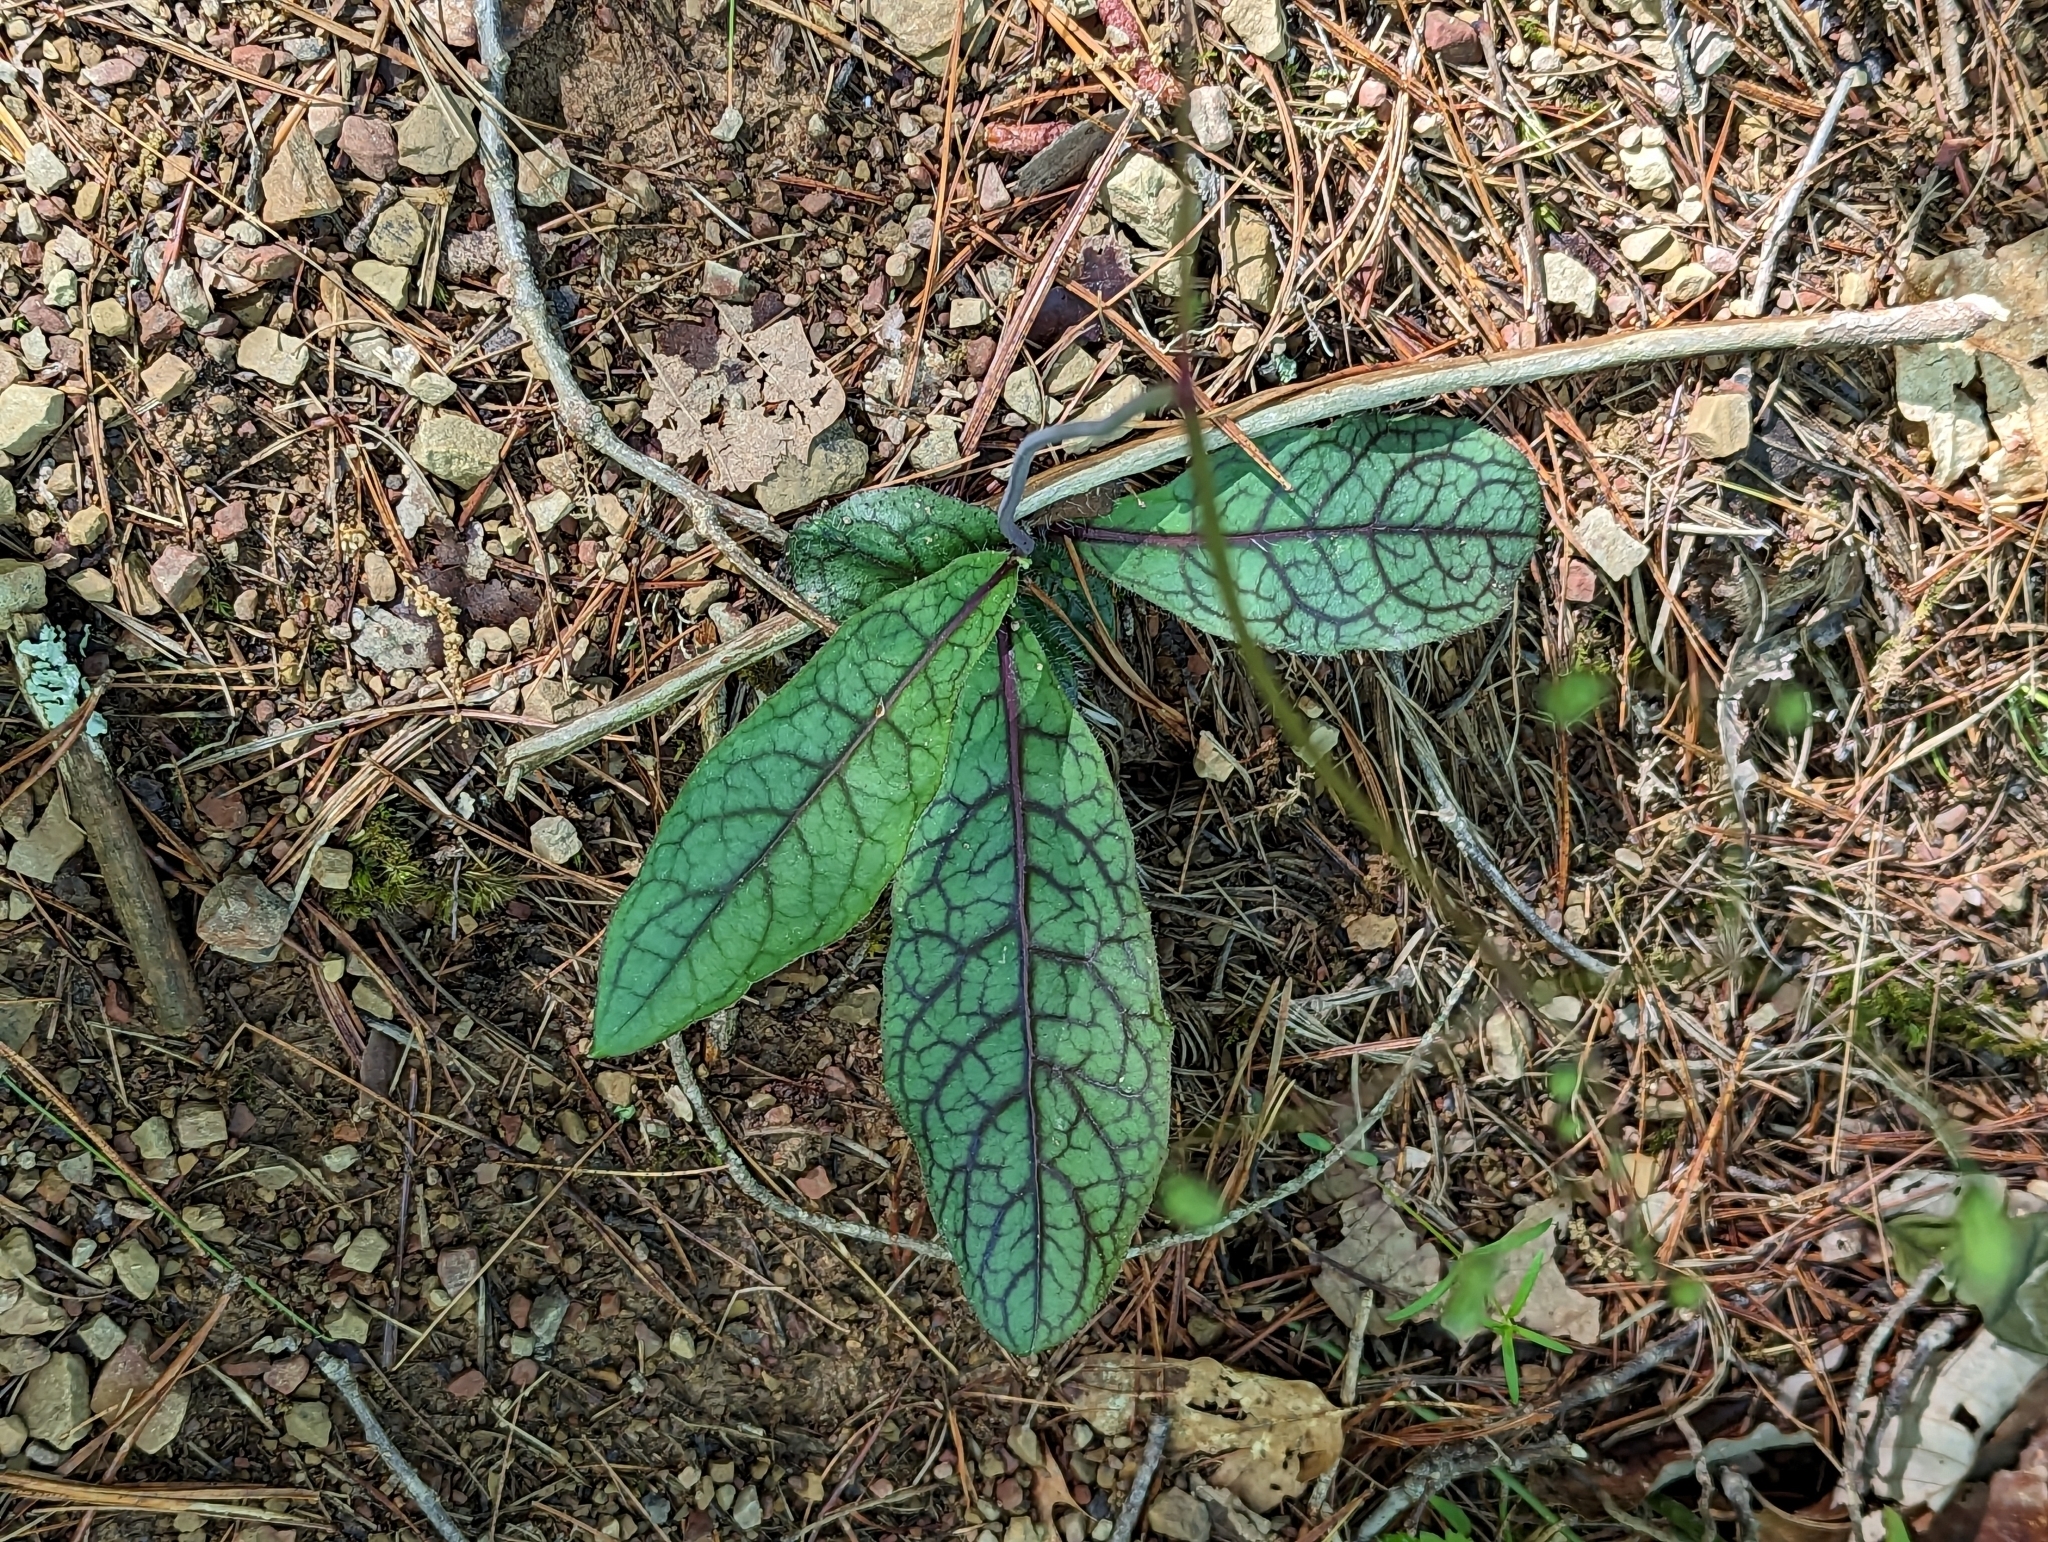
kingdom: Plantae
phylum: Tracheophyta
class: Magnoliopsida
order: Asterales
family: Asteraceae
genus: Hieracium
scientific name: Hieracium venosum
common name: Rattlesnake hawkweed
